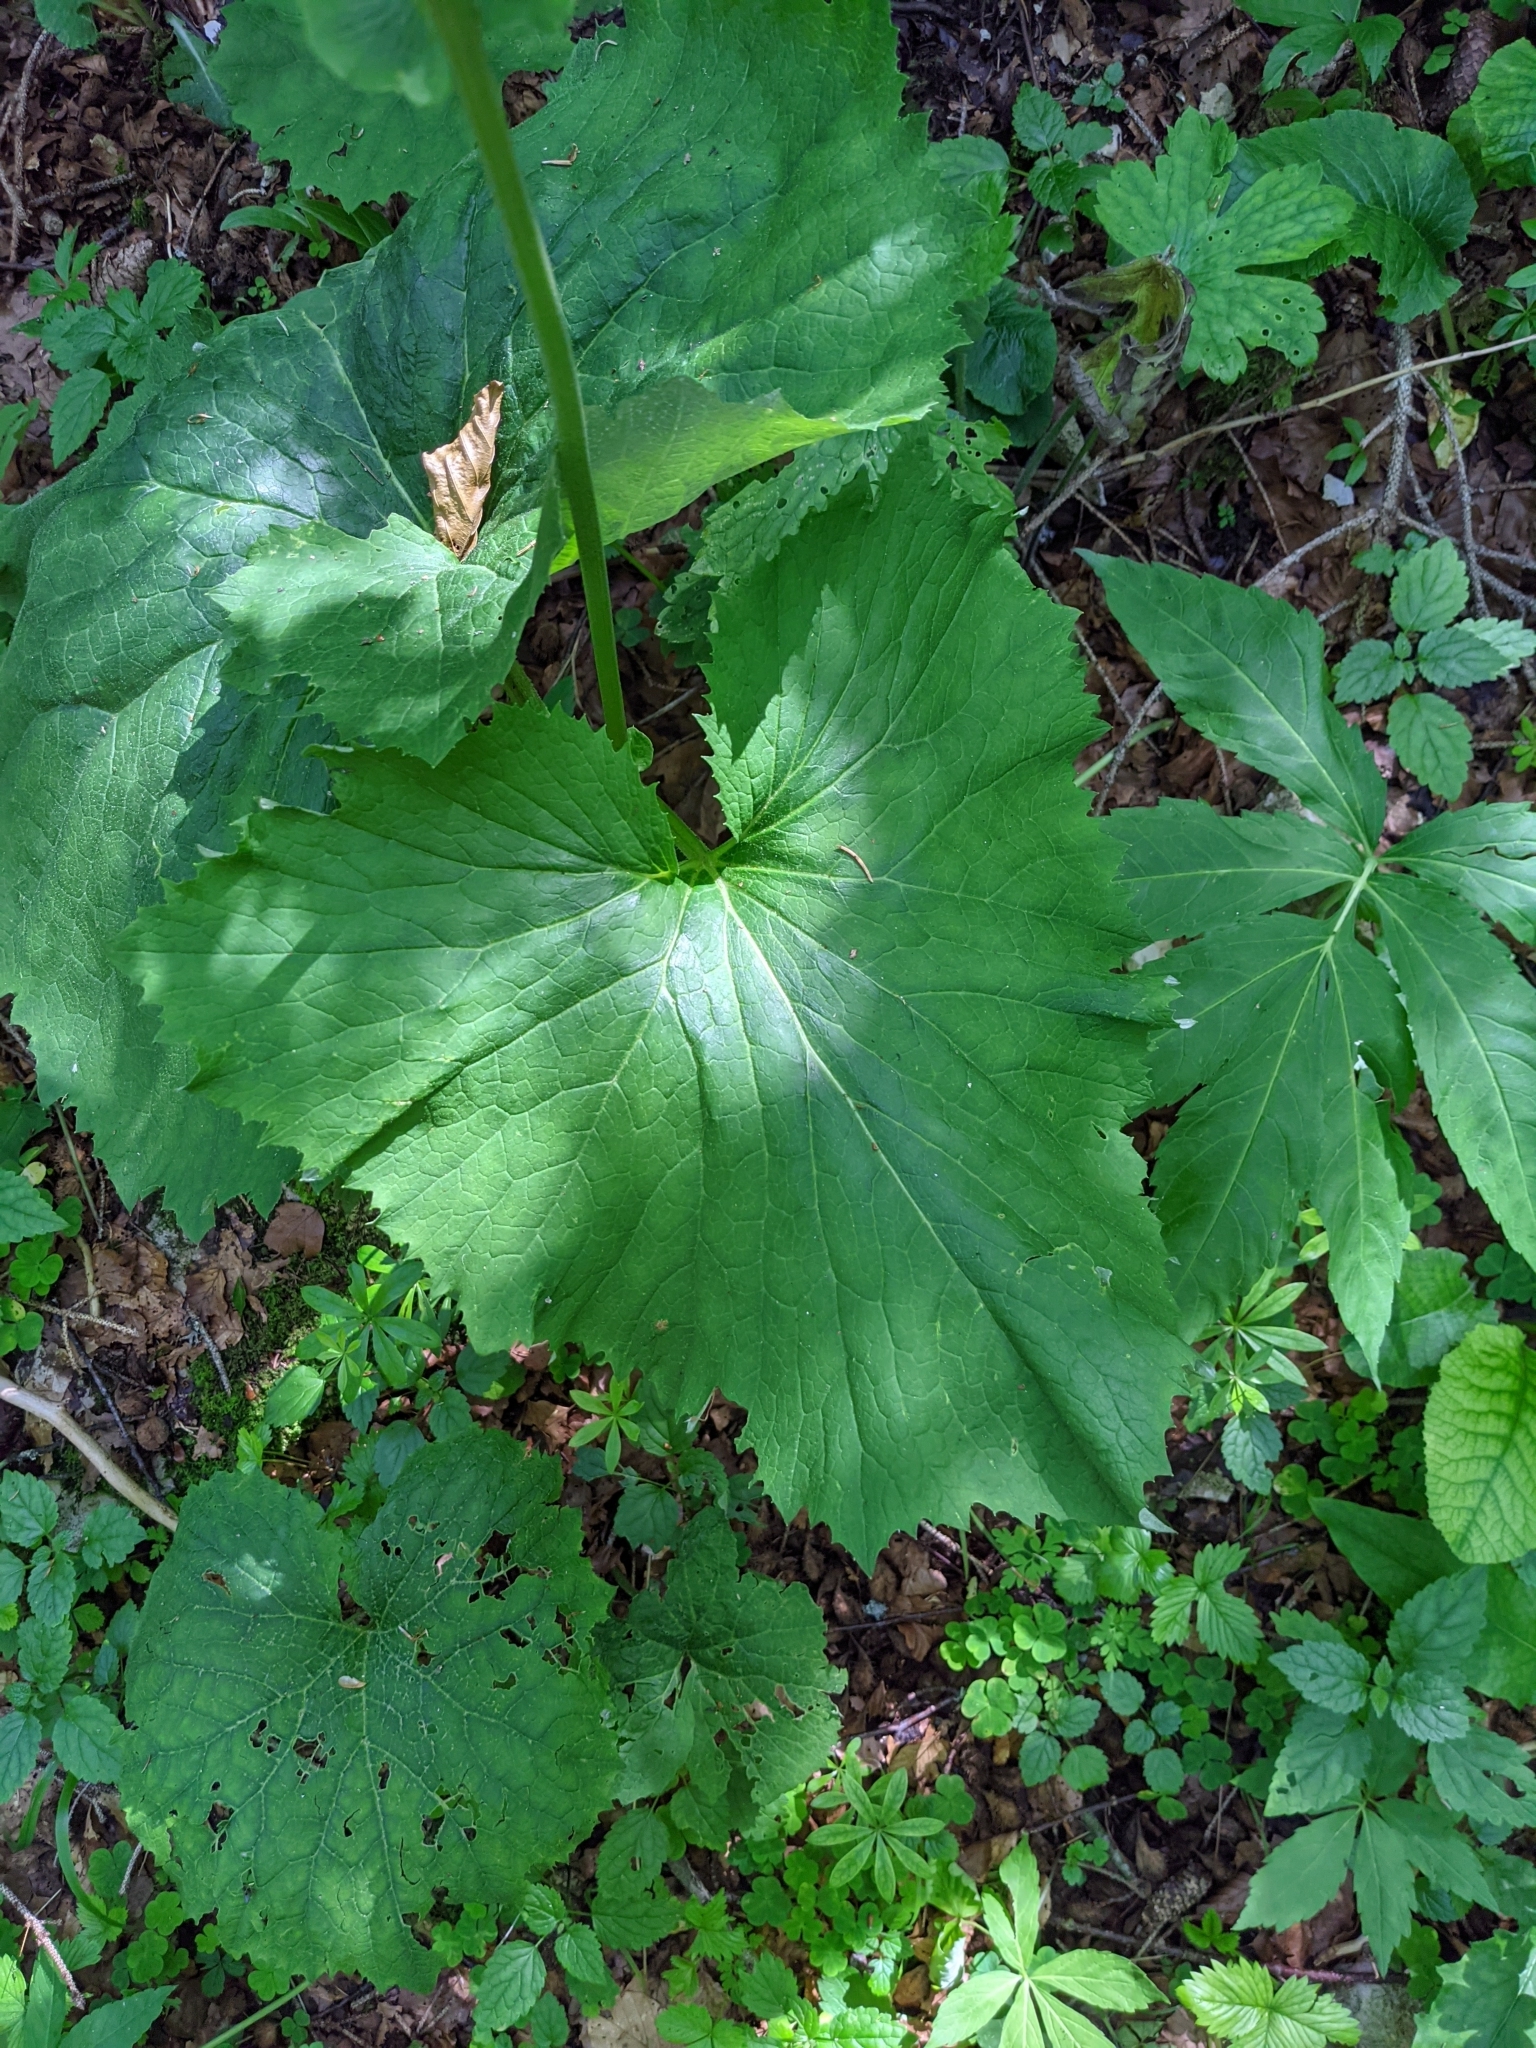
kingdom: Plantae
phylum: Tracheophyta
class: Magnoliopsida
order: Asterales
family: Asteraceae
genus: Adenostyles
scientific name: Adenostyles alliariae
